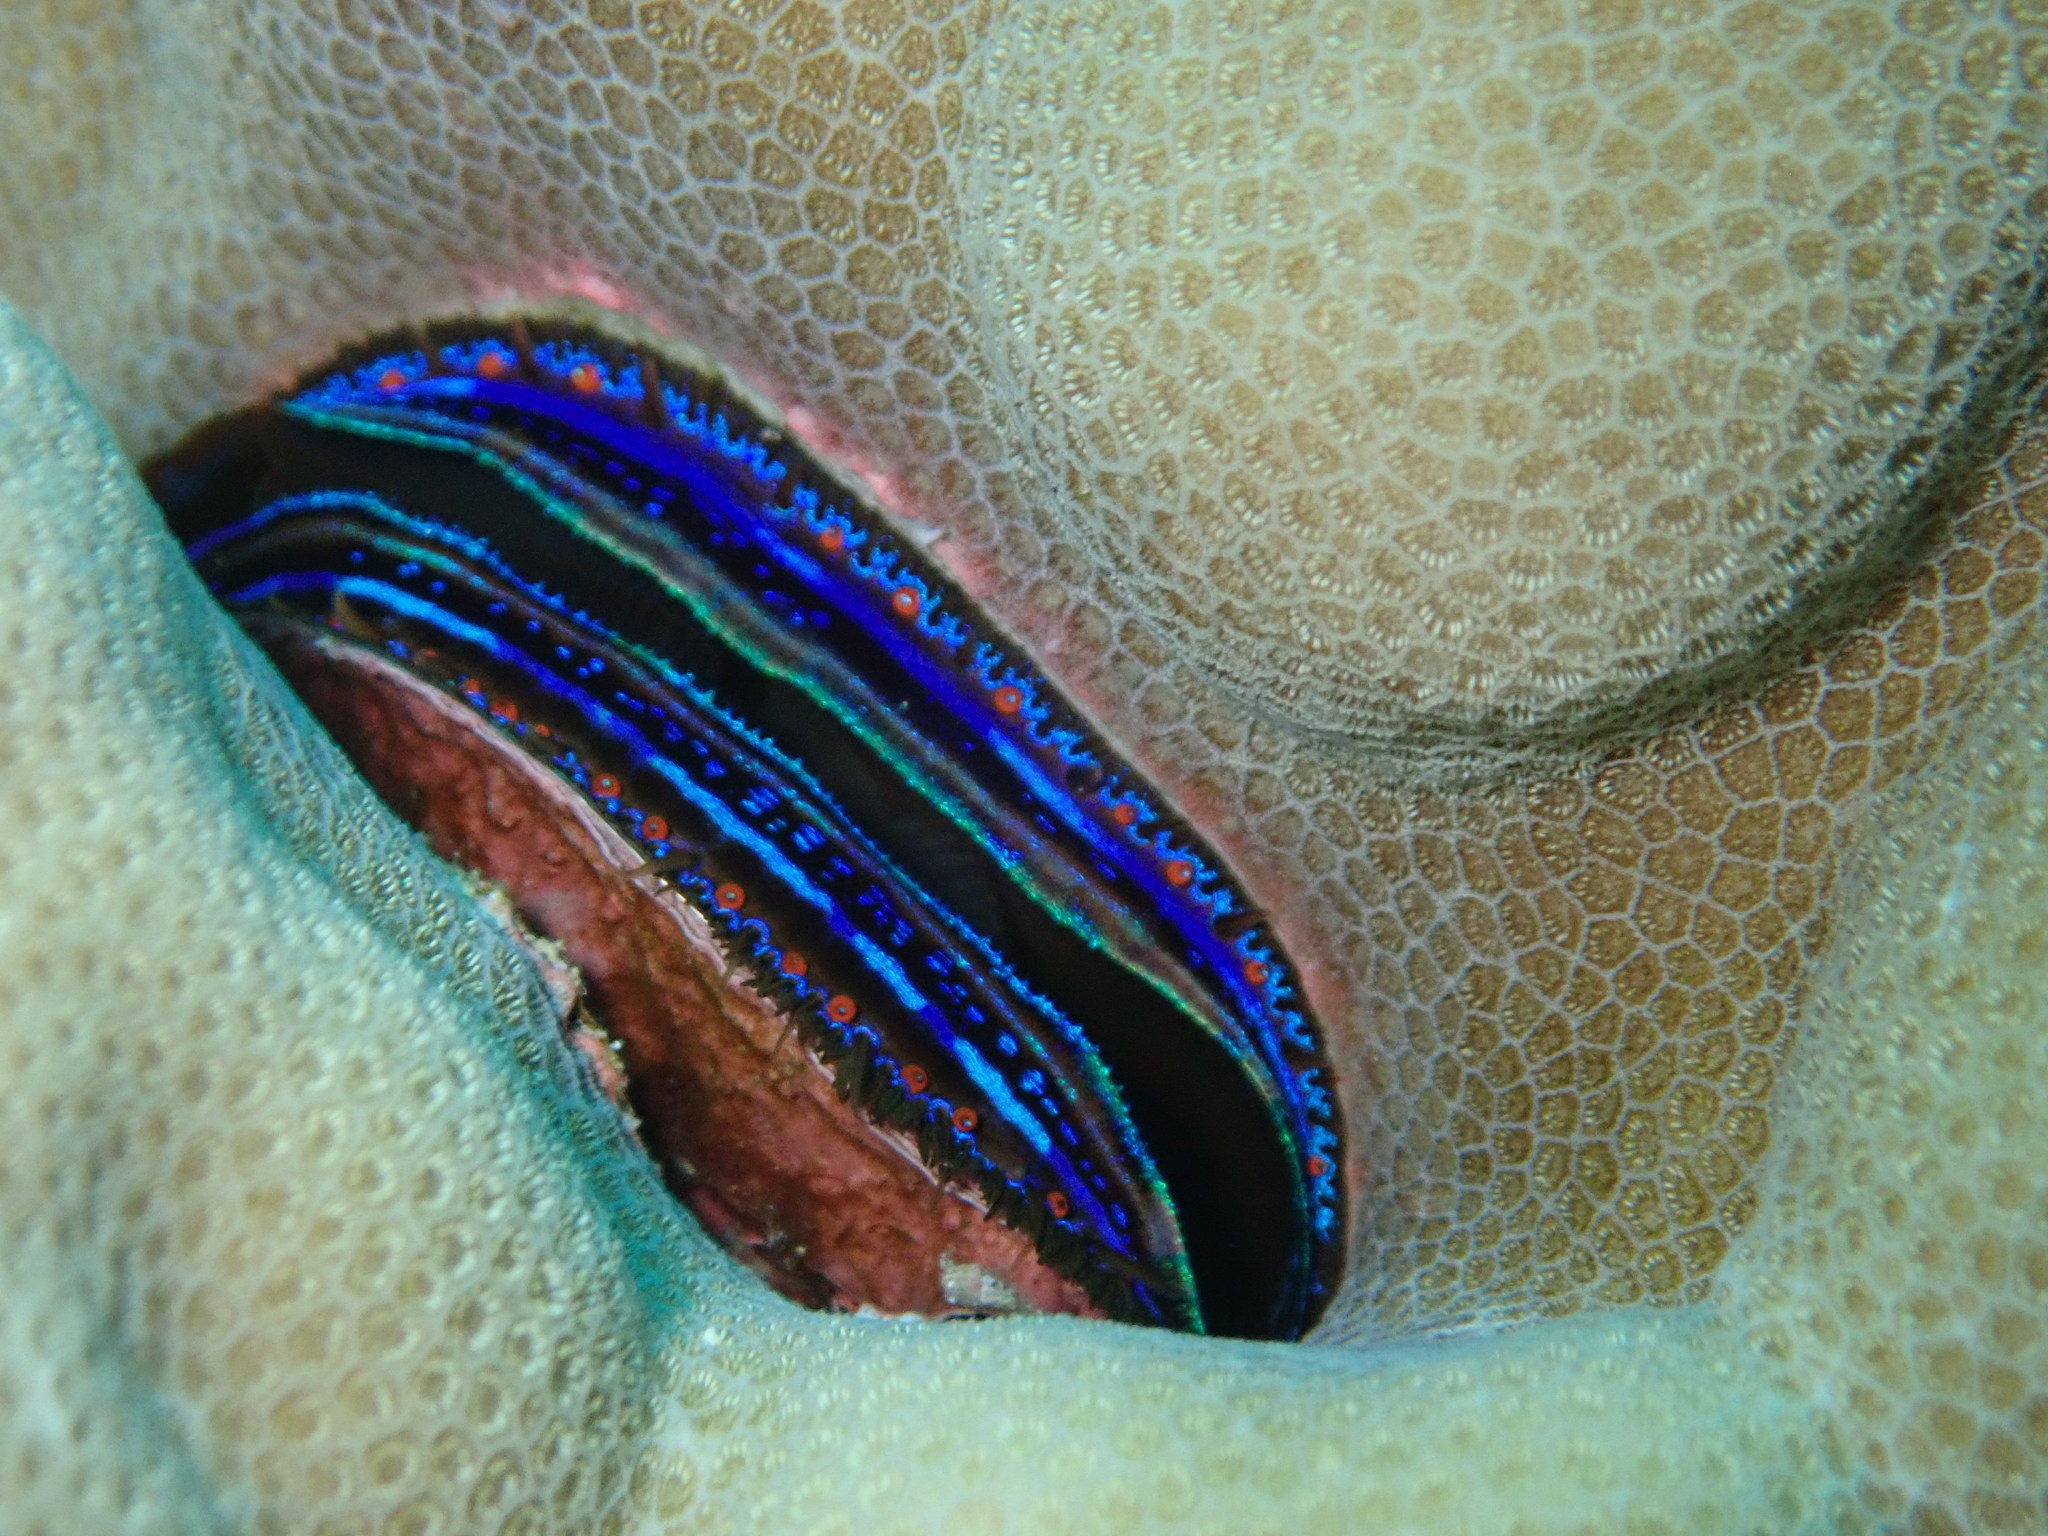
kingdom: Animalia
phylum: Mollusca
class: Bivalvia
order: Pectinida
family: Pectinidae
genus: Pedum
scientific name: Pedum spondyloideum
